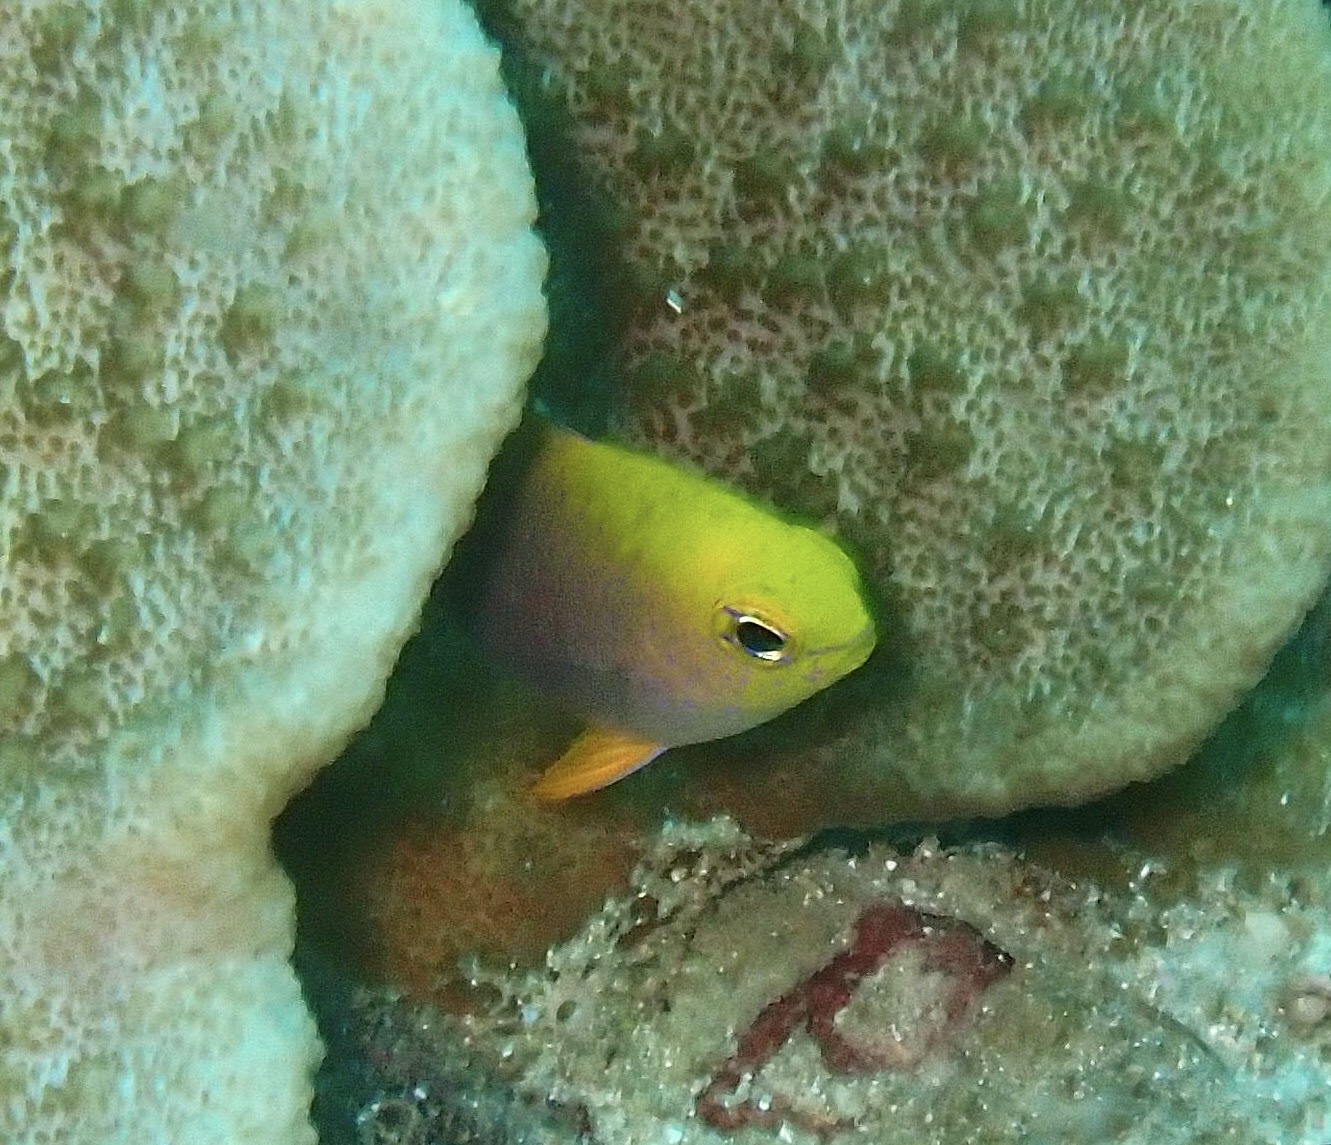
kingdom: Animalia
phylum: Chordata
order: Perciformes
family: Pomacentridae
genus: Chrysiptera
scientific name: Chrysiptera talboti
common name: Talbot's demoiselle
